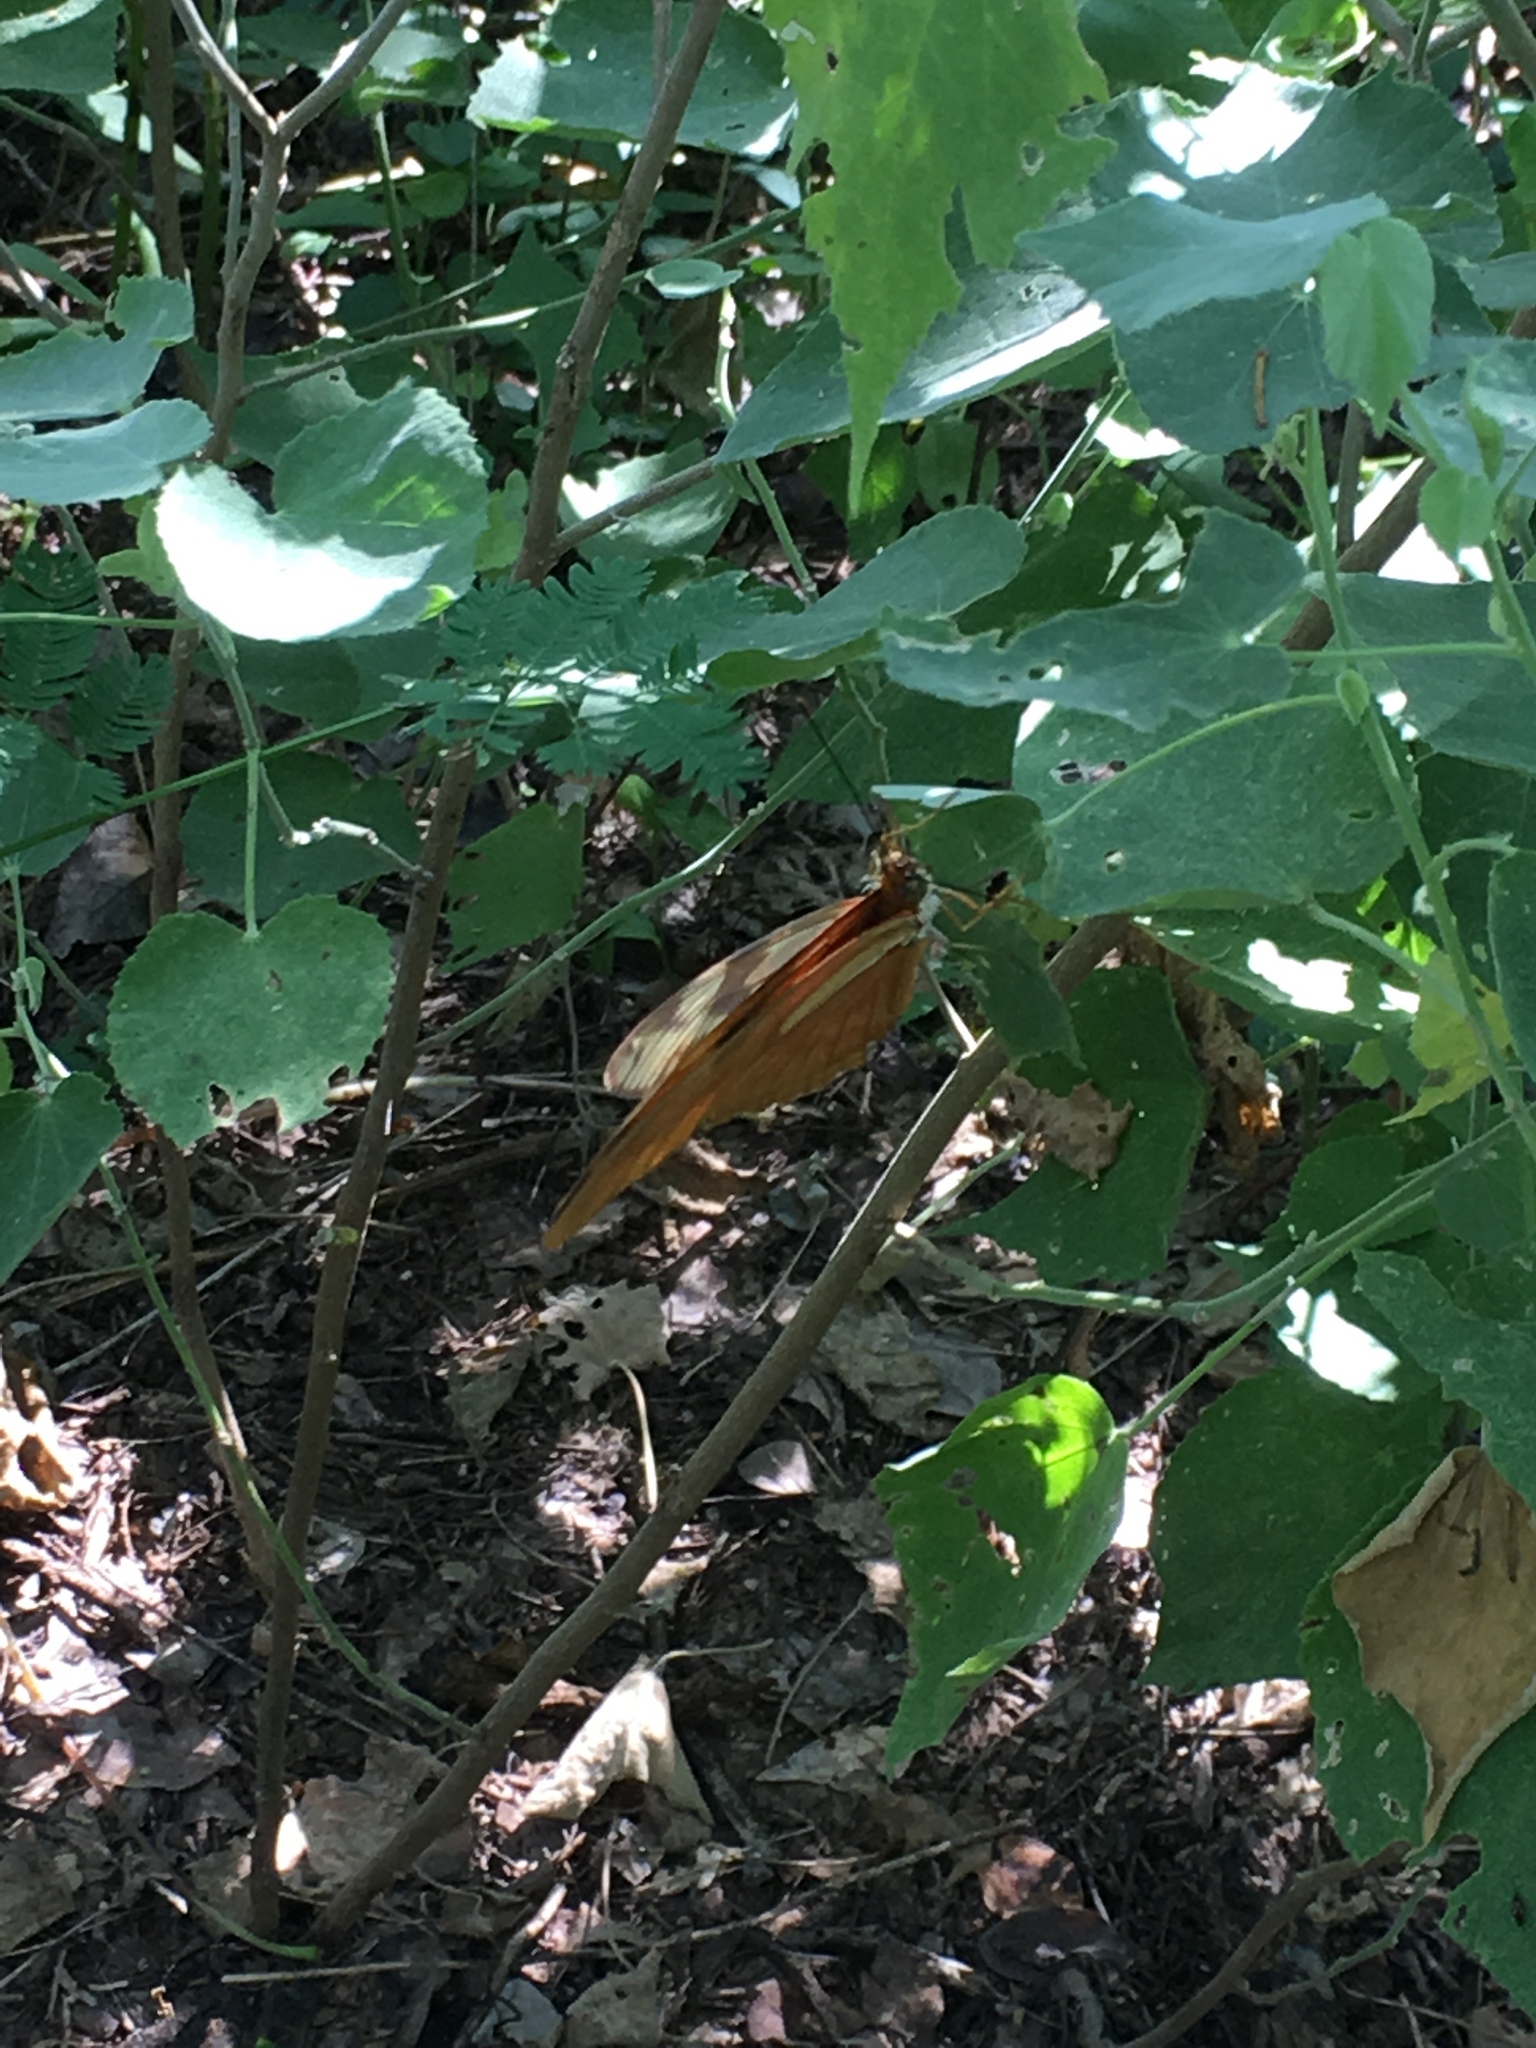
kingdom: Animalia
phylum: Arthropoda
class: Insecta
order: Lepidoptera
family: Nymphalidae
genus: Dryas
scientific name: Dryas iulia
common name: Flambeau
